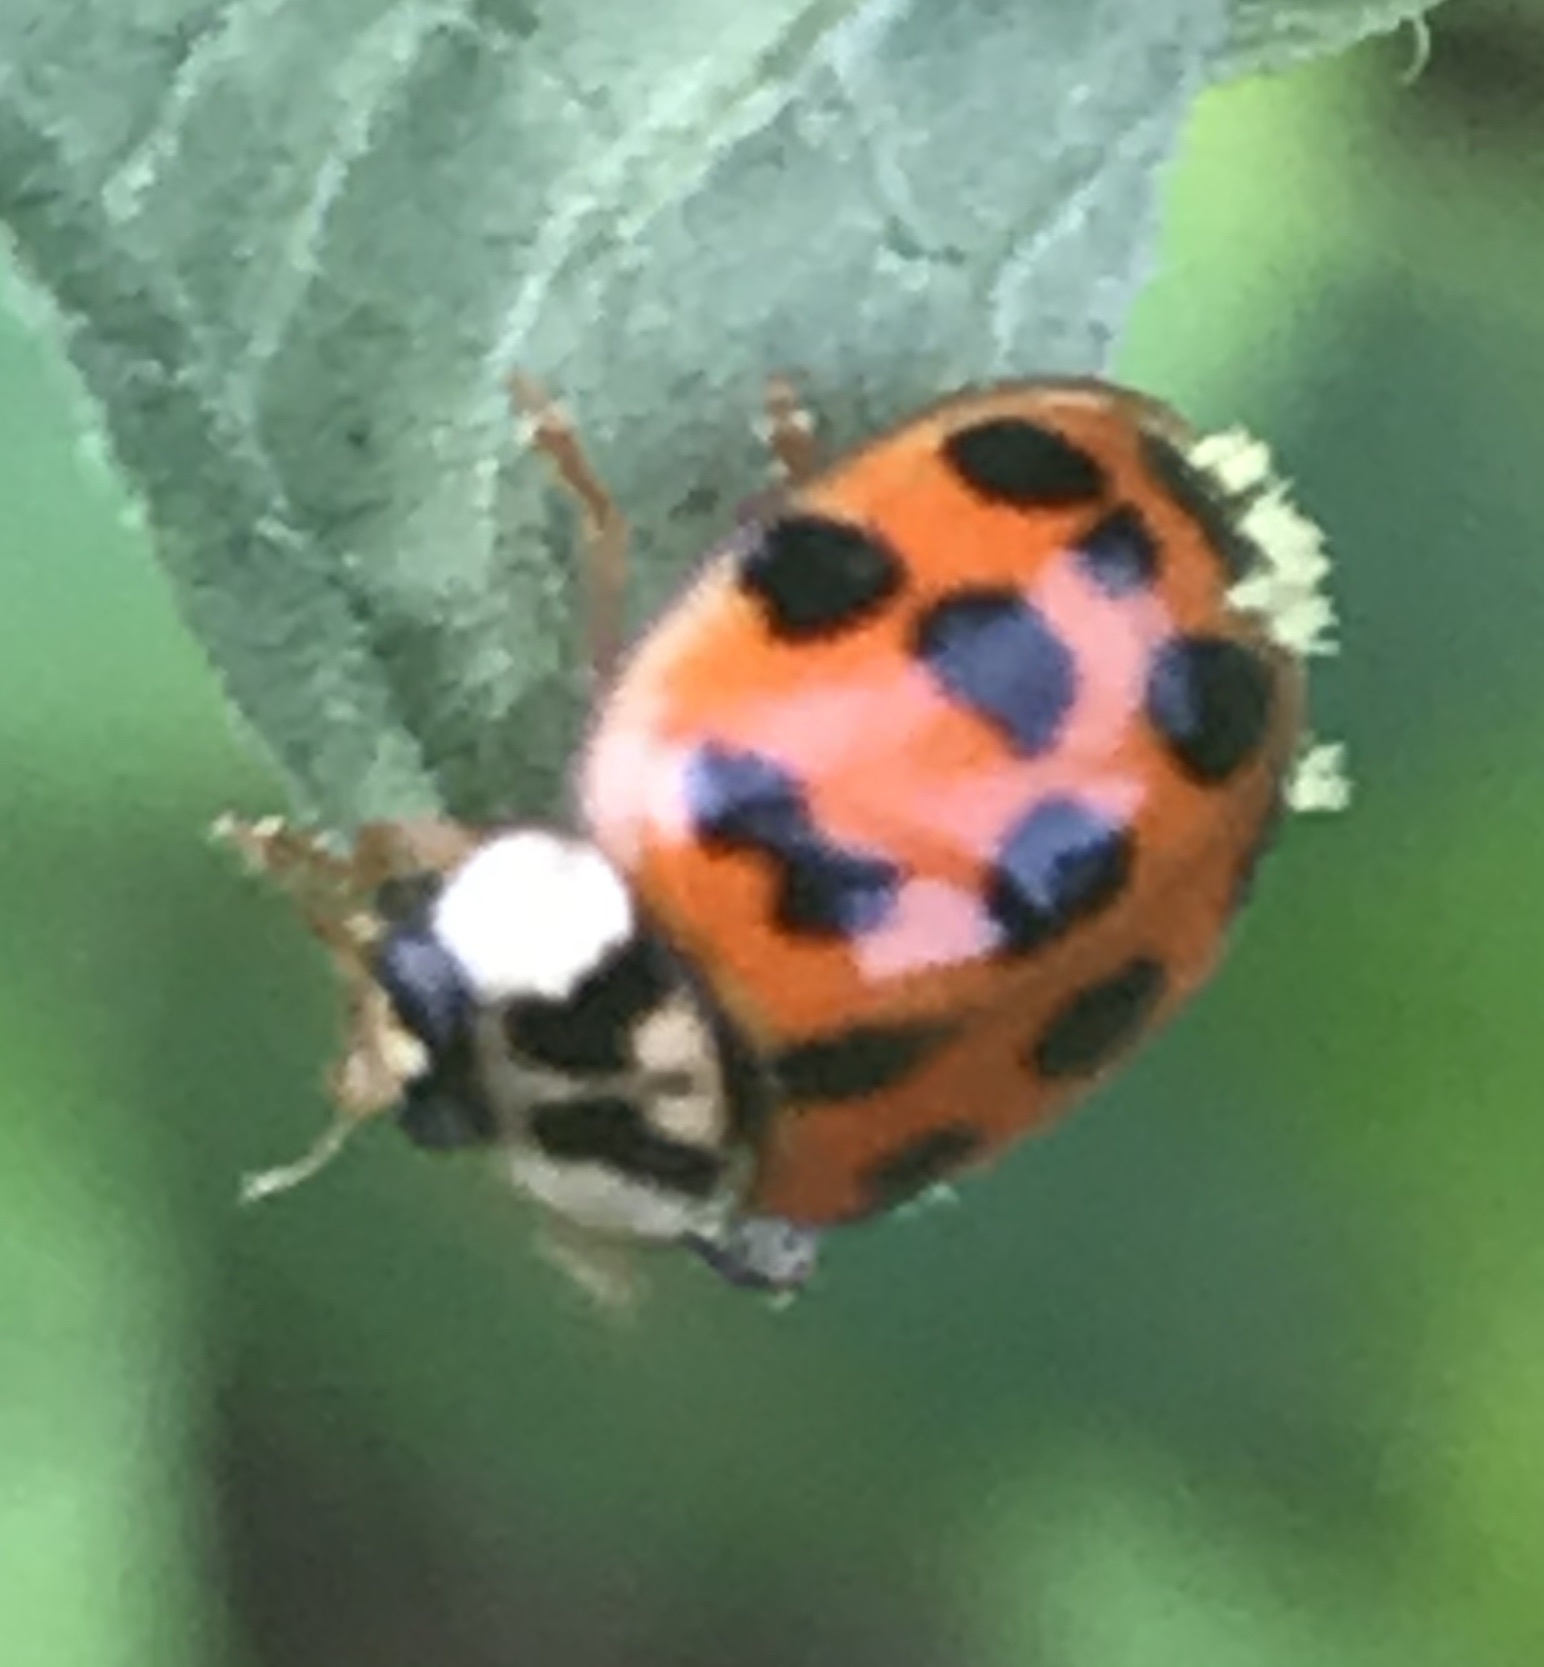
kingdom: Animalia
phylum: Arthropoda
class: Insecta
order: Coleoptera
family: Coccinellidae
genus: Harmonia
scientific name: Harmonia axyridis
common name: Harlequin ladybird
